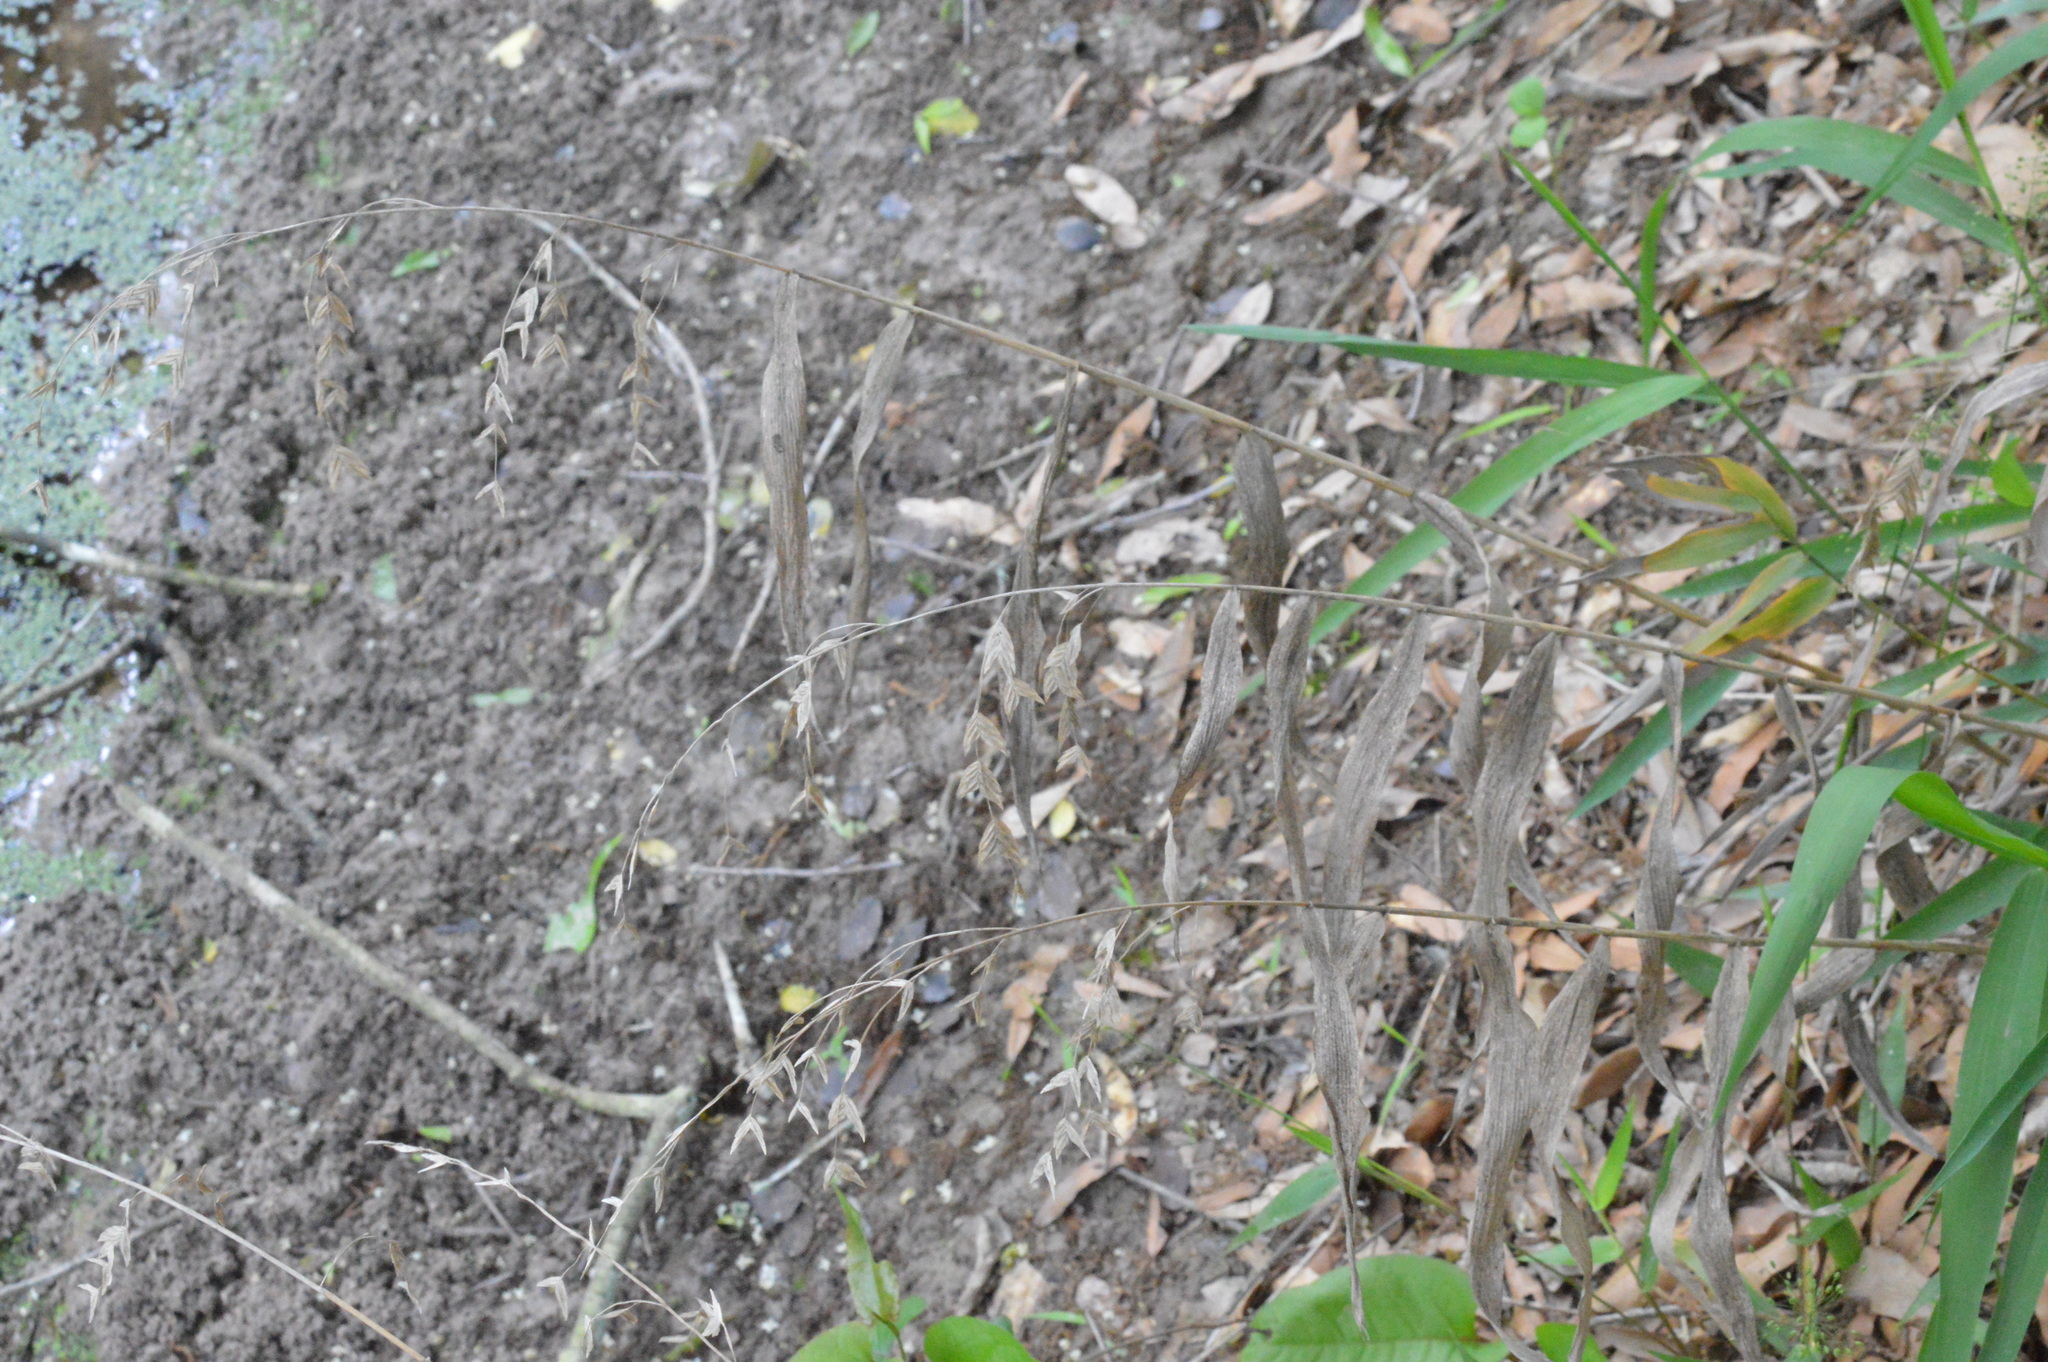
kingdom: Plantae
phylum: Tracheophyta
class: Liliopsida
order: Poales
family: Poaceae
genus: Chasmanthium
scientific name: Chasmanthium latifolium
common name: Broad-leaved chasmanthium
